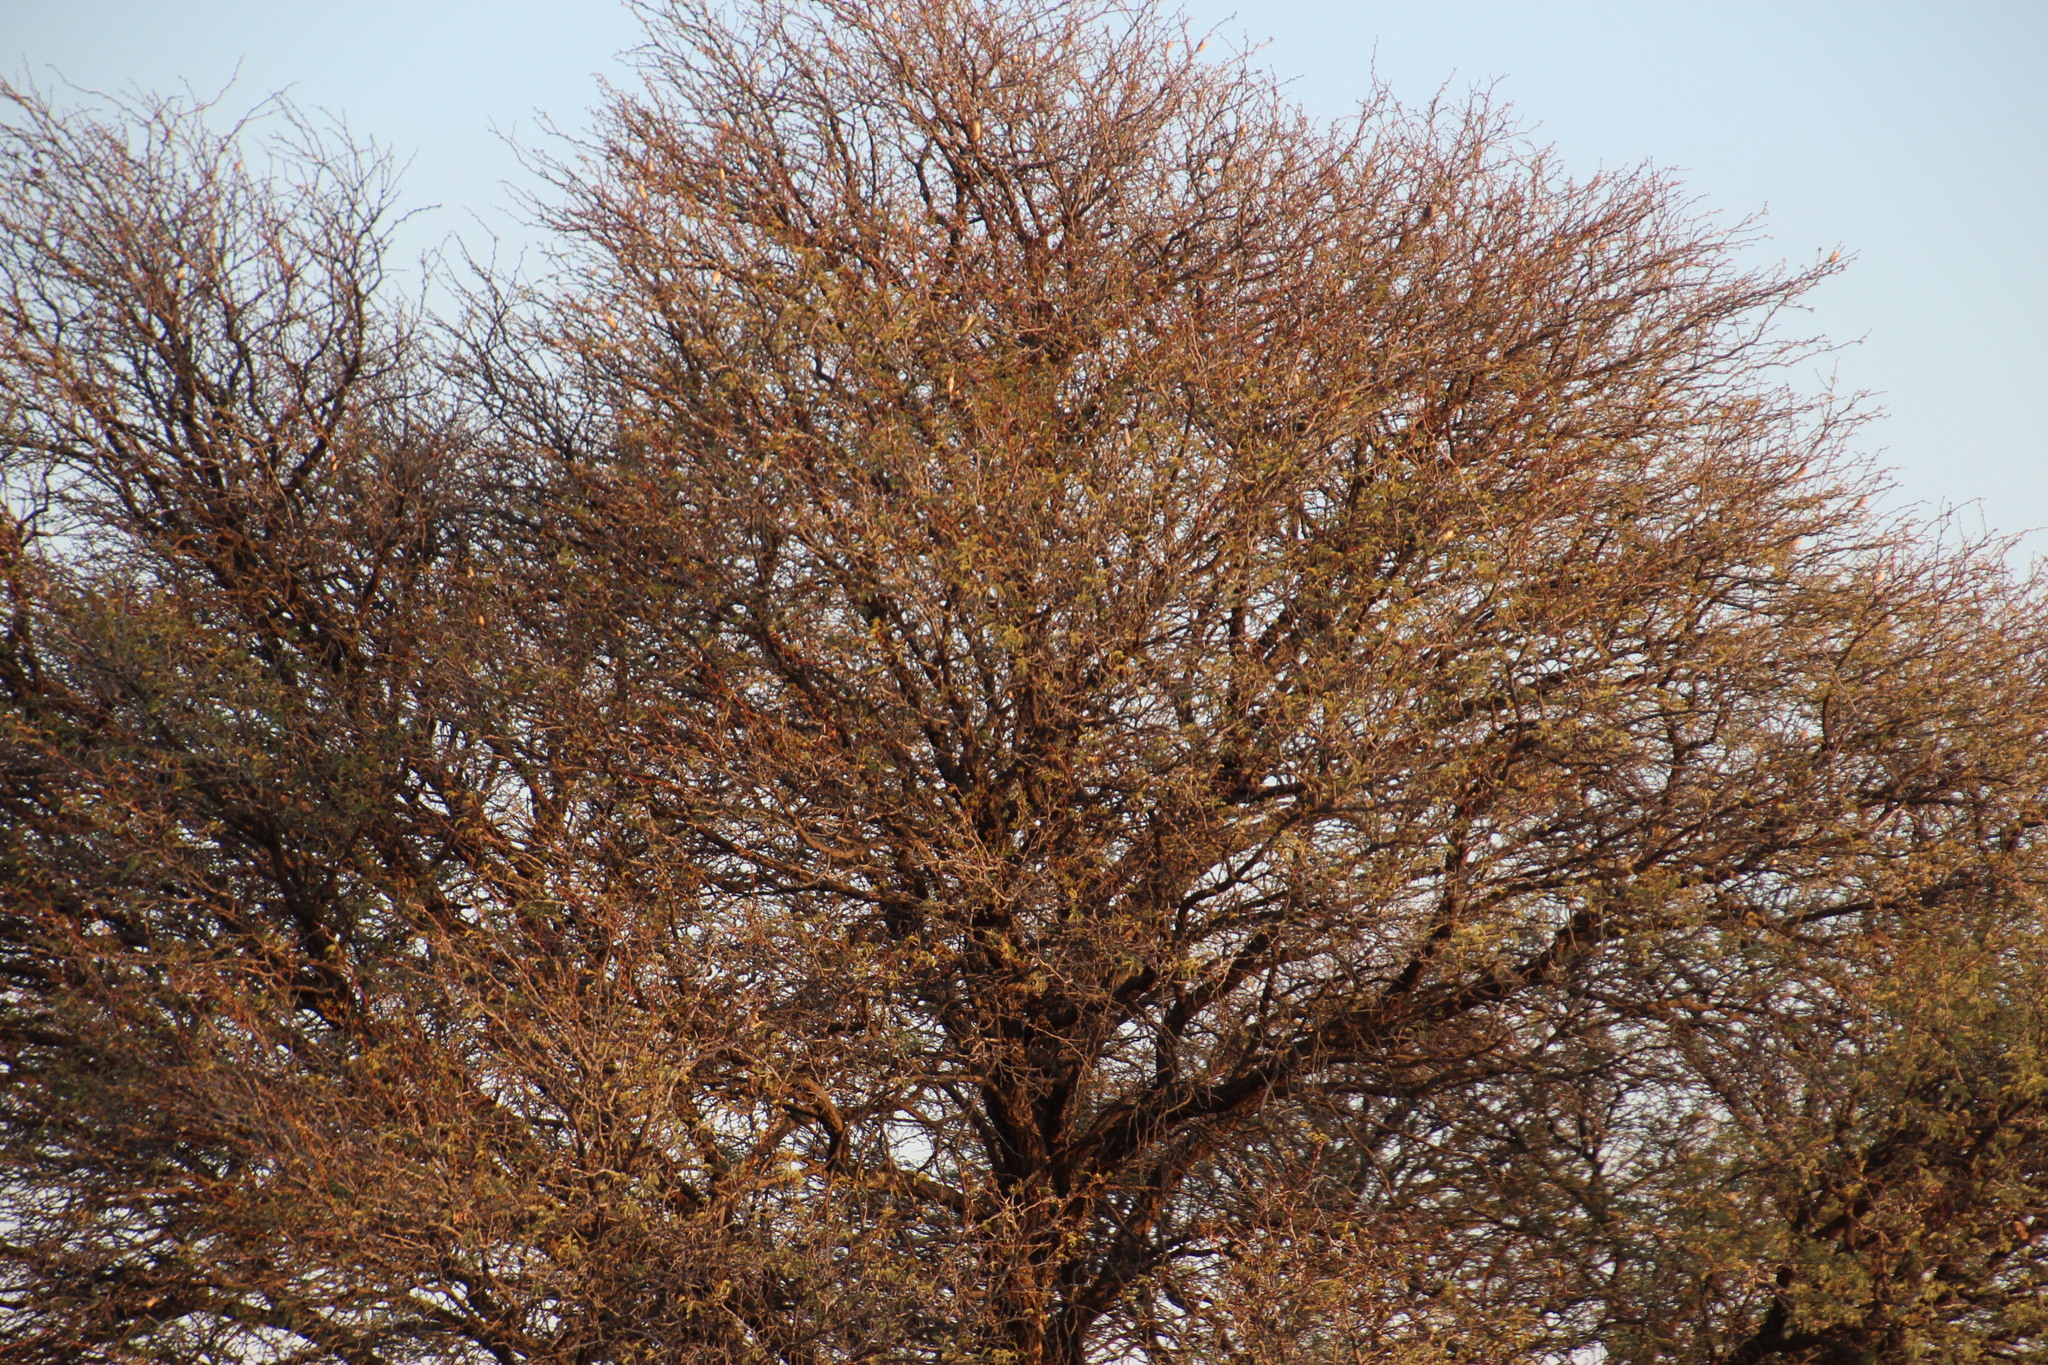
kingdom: Plantae
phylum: Tracheophyta
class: Magnoliopsida
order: Fabales
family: Fabaceae
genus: Prosopis
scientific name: Prosopis glandulosa
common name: Honey mesquite
